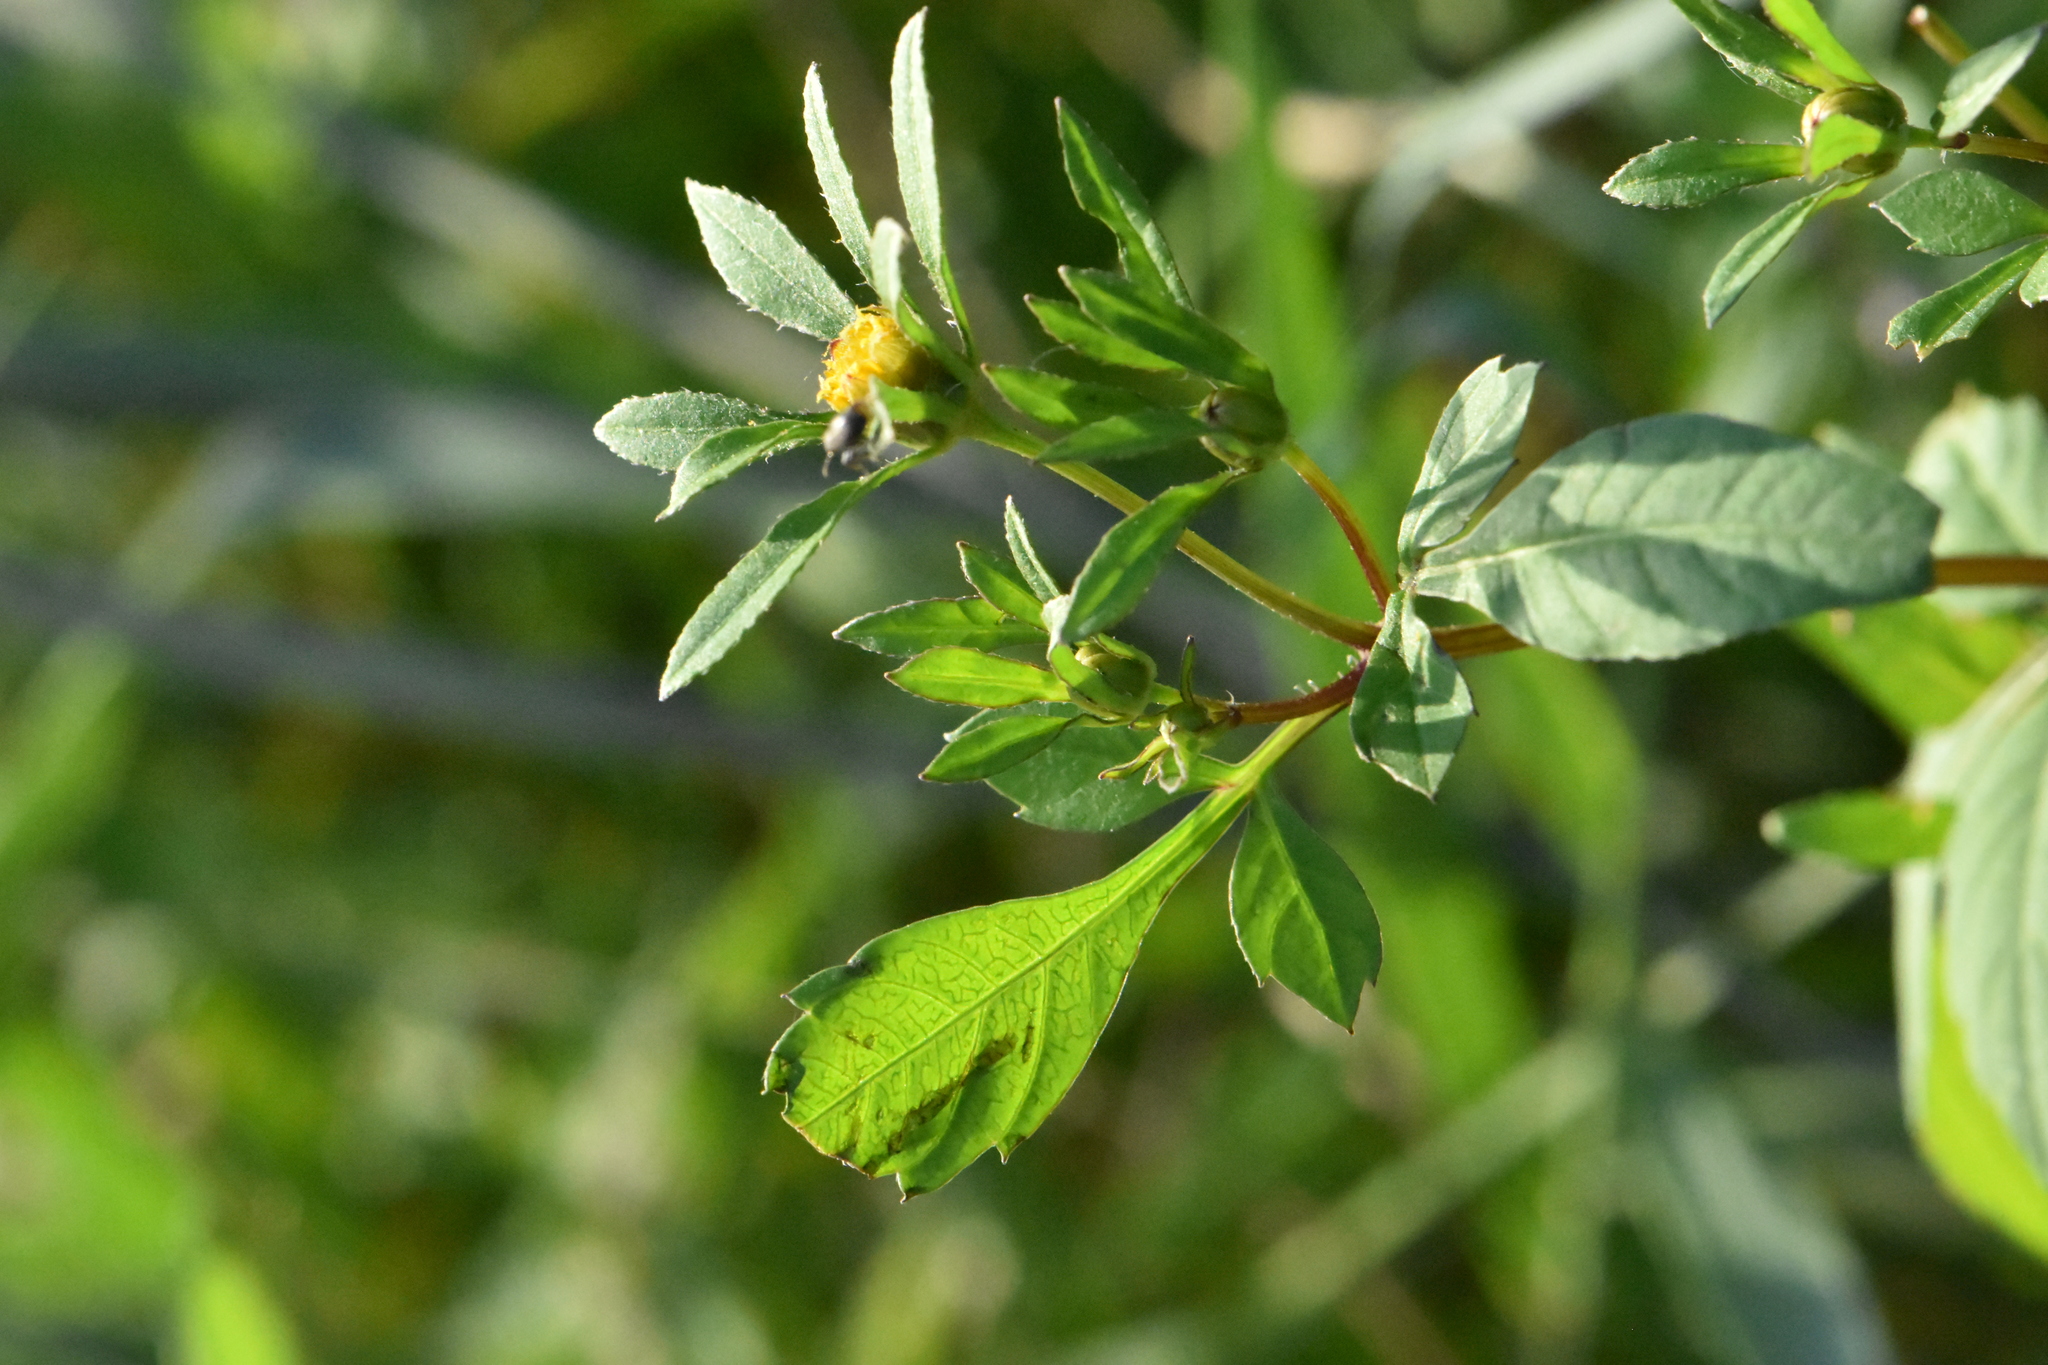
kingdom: Plantae
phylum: Tracheophyta
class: Magnoliopsida
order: Asterales
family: Asteraceae
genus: Bidens
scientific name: Bidens frondosa
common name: Beggarticks
